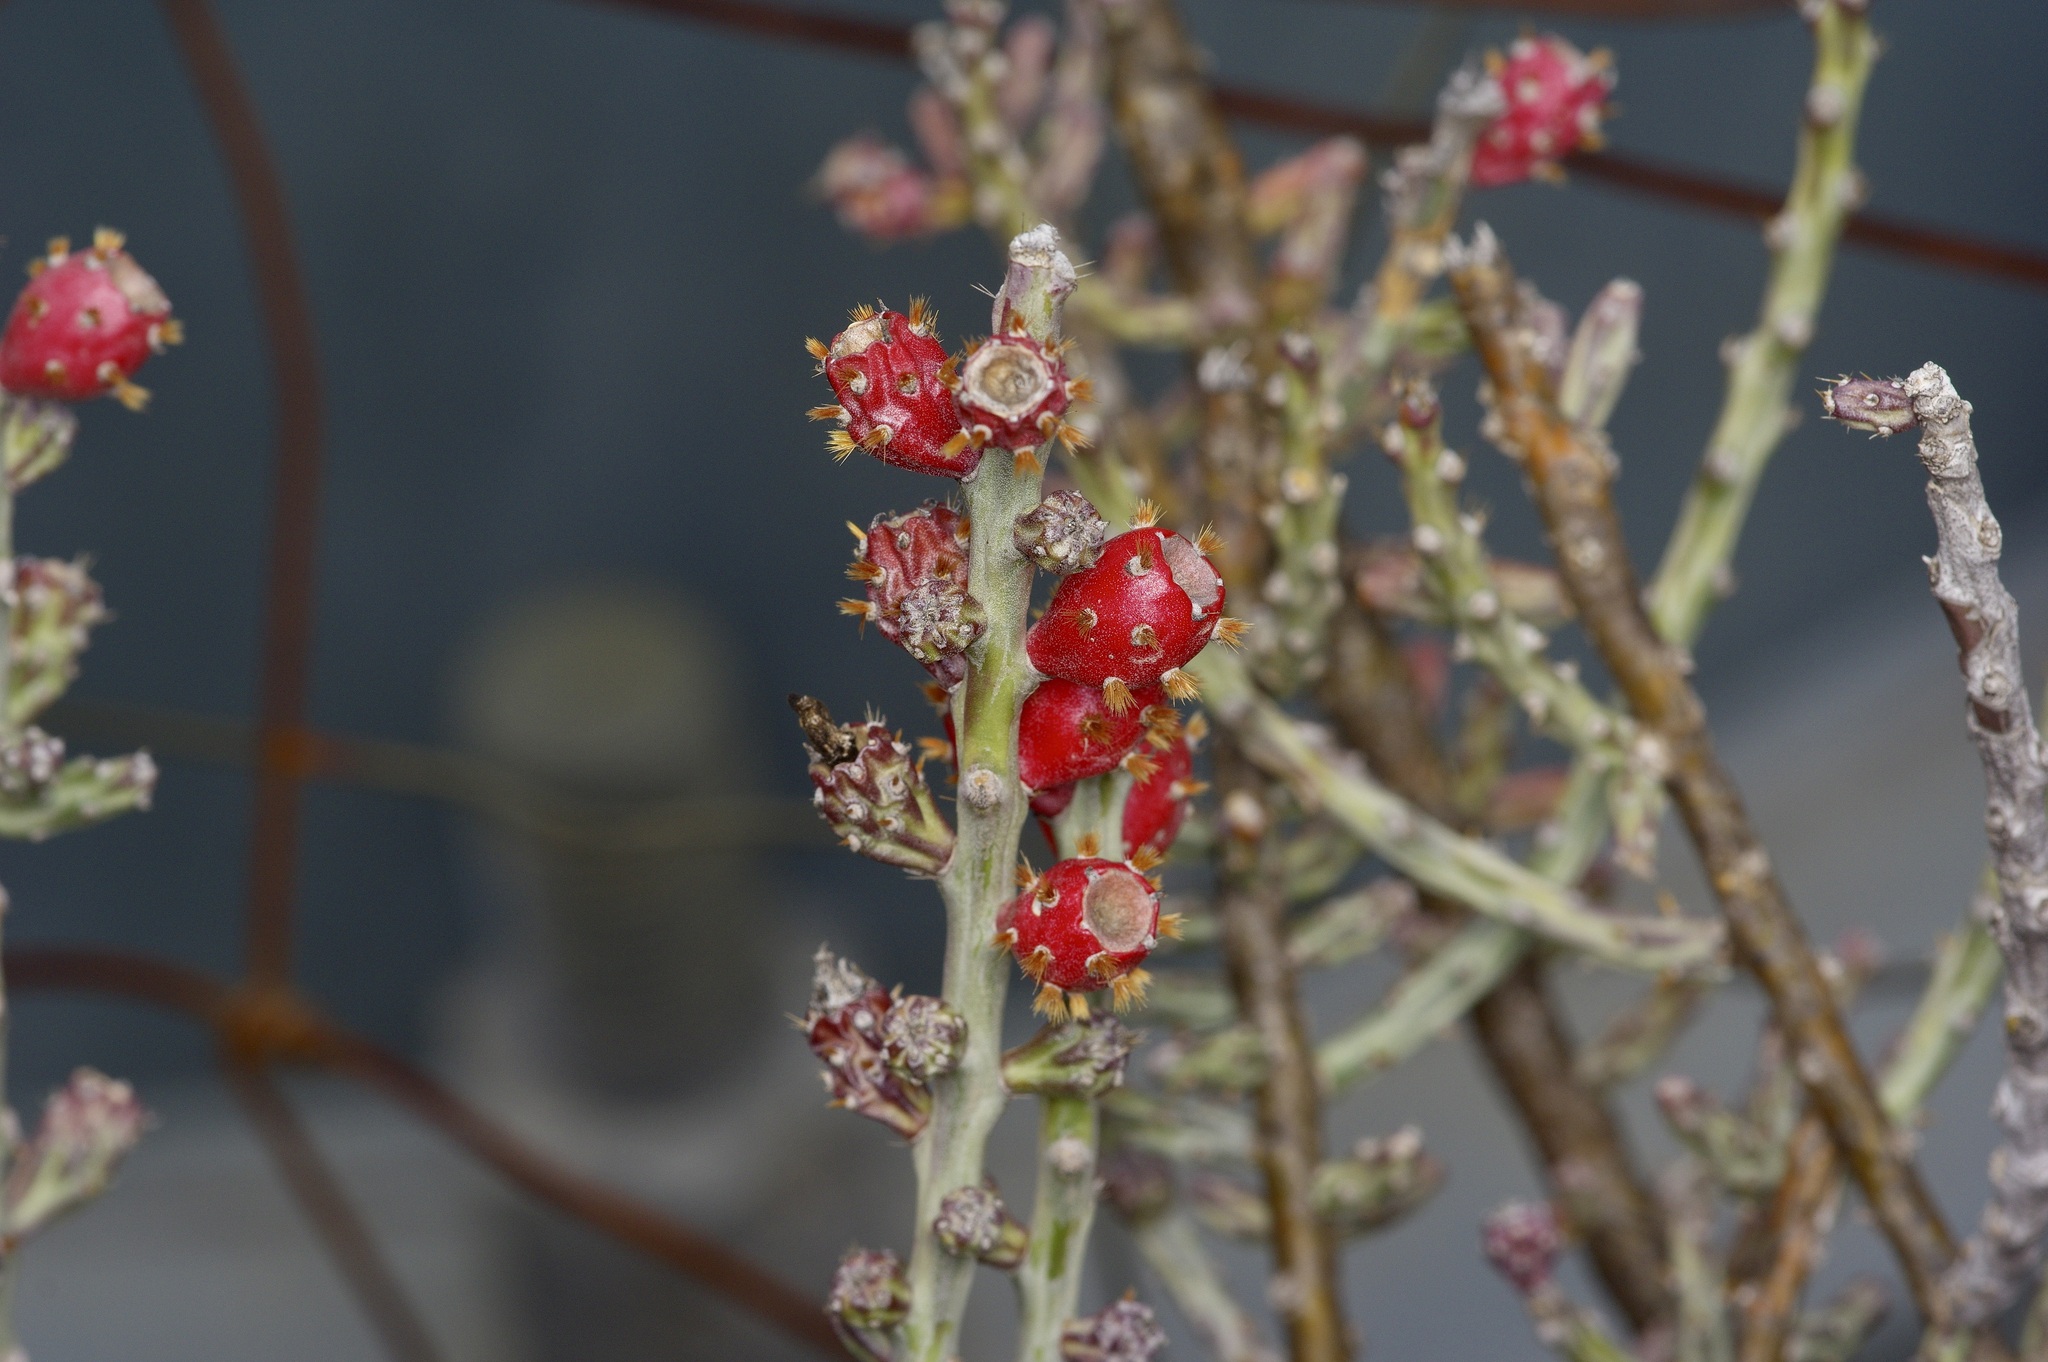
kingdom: Plantae
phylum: Tracheophyta
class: Magnoliopsida
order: Caryophyllales
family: Cactaceae
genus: Cylindropuntia
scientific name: Cylindropuntia leptocaulis
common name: Christmas cactus
